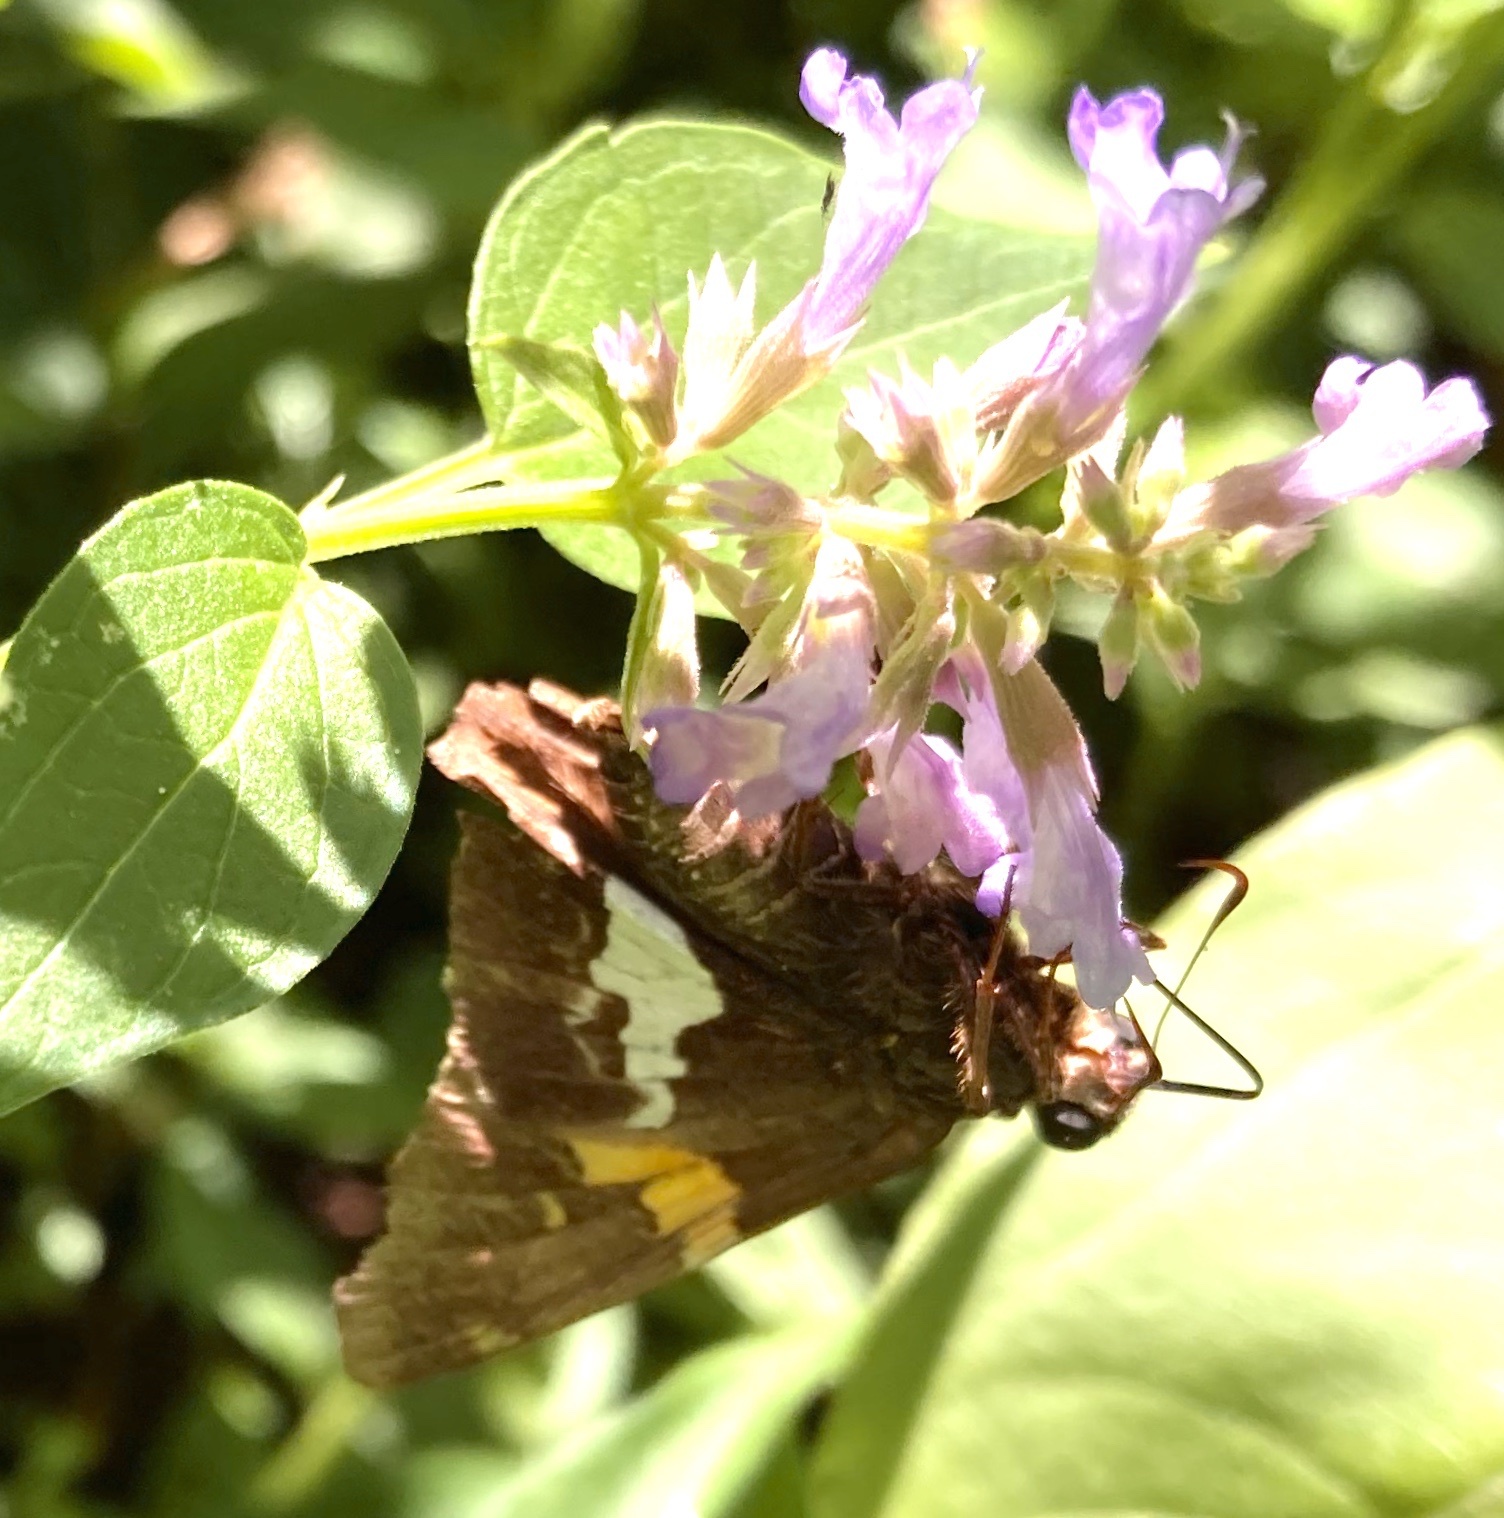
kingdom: Animalia
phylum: Arthropoda
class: Insecta
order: Lepidoptera
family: Hesperiidae
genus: Epargyreus
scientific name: Epargyreus clarus
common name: Silver-spotted skipper
